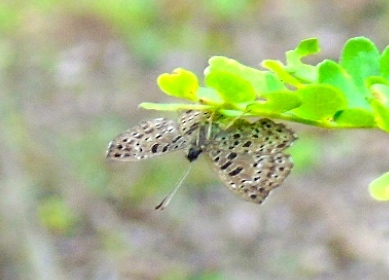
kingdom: Animalia
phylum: Arthropoda
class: Insecta
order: Lepidoptera
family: Riodinidae
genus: Hallonympha
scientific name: Hallonympha eudocia
